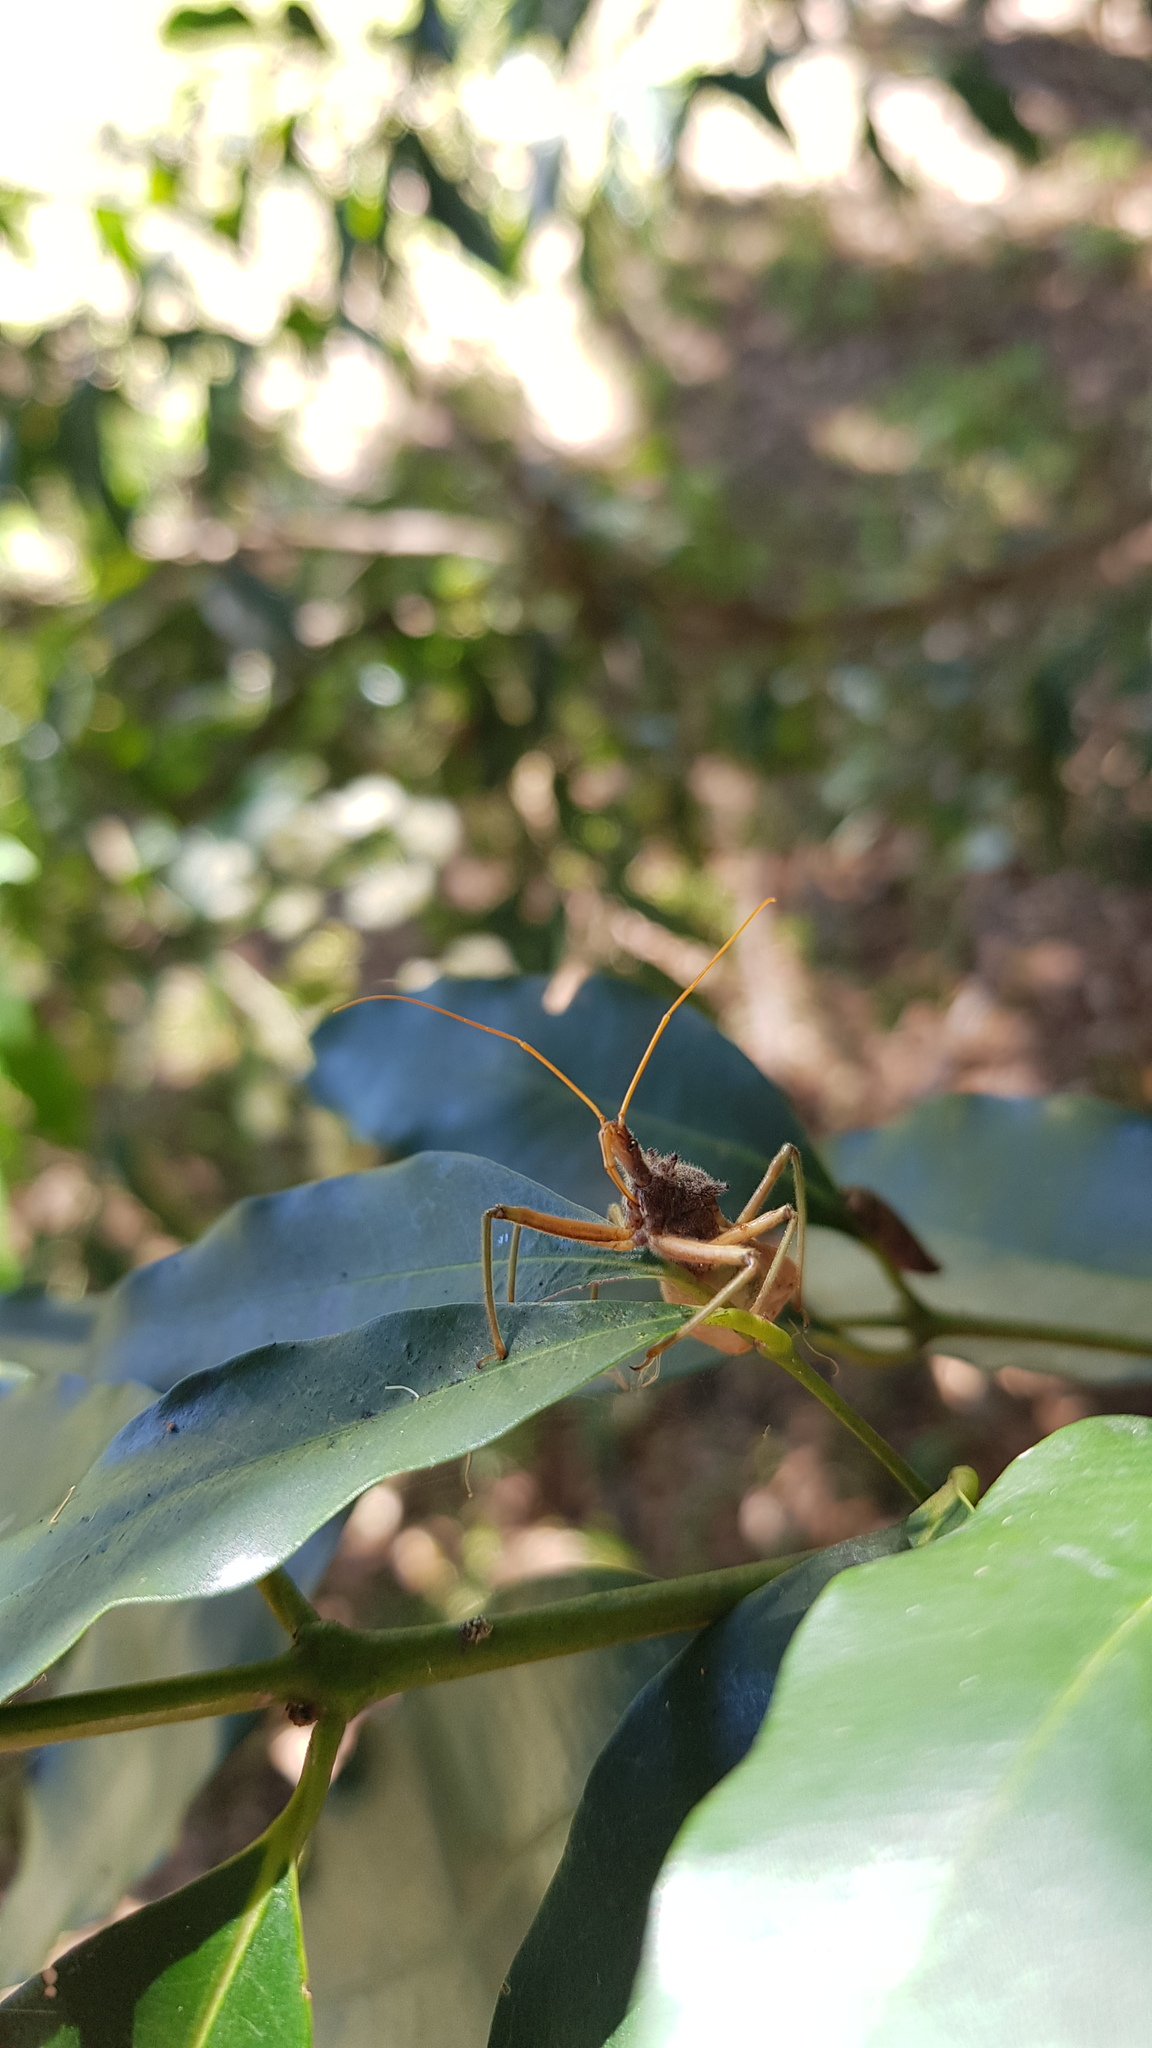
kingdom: Animalia
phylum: Arthropoda
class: Insecta
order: Hemiptera
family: Reduviidae
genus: Pristhesancus
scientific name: Pristhesancus plagipennis
